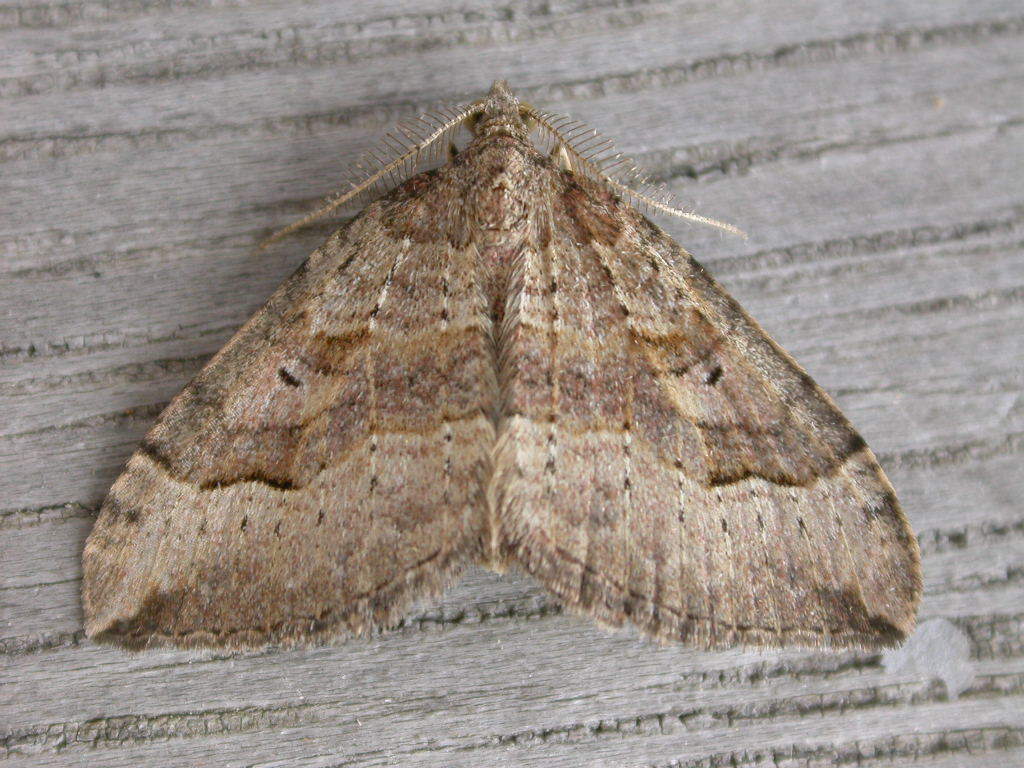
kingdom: Animalia
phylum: Arthropoda
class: Insecta
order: Lepidoptera
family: Geometridae
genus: Epyaxa
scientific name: Epyaxa rosearia
